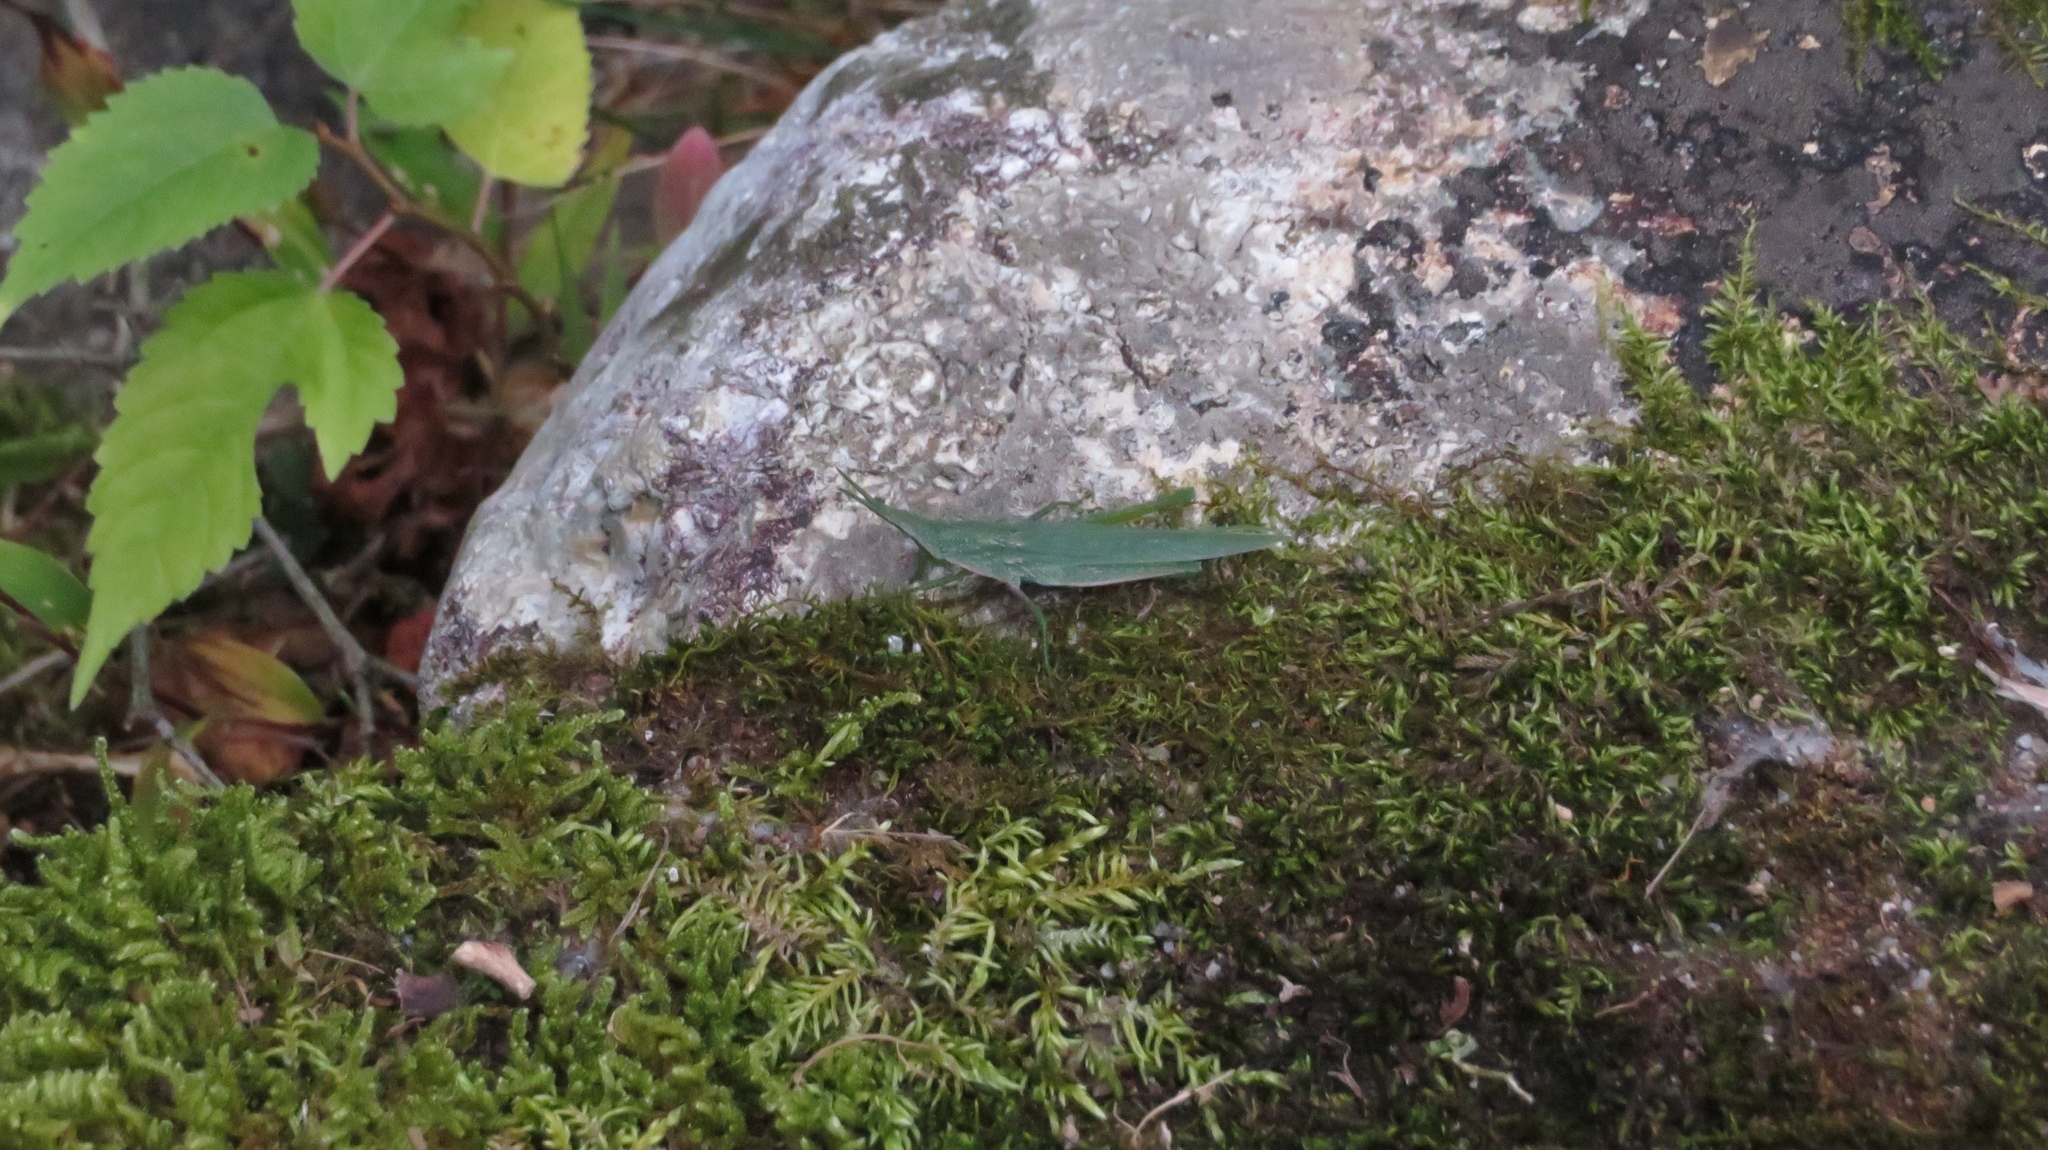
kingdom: Animalia
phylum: Arthropoda
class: Insecta
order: Orthoptera
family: Pyrgomorphidae
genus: Atractomorpha
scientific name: Atractomorpha lata
